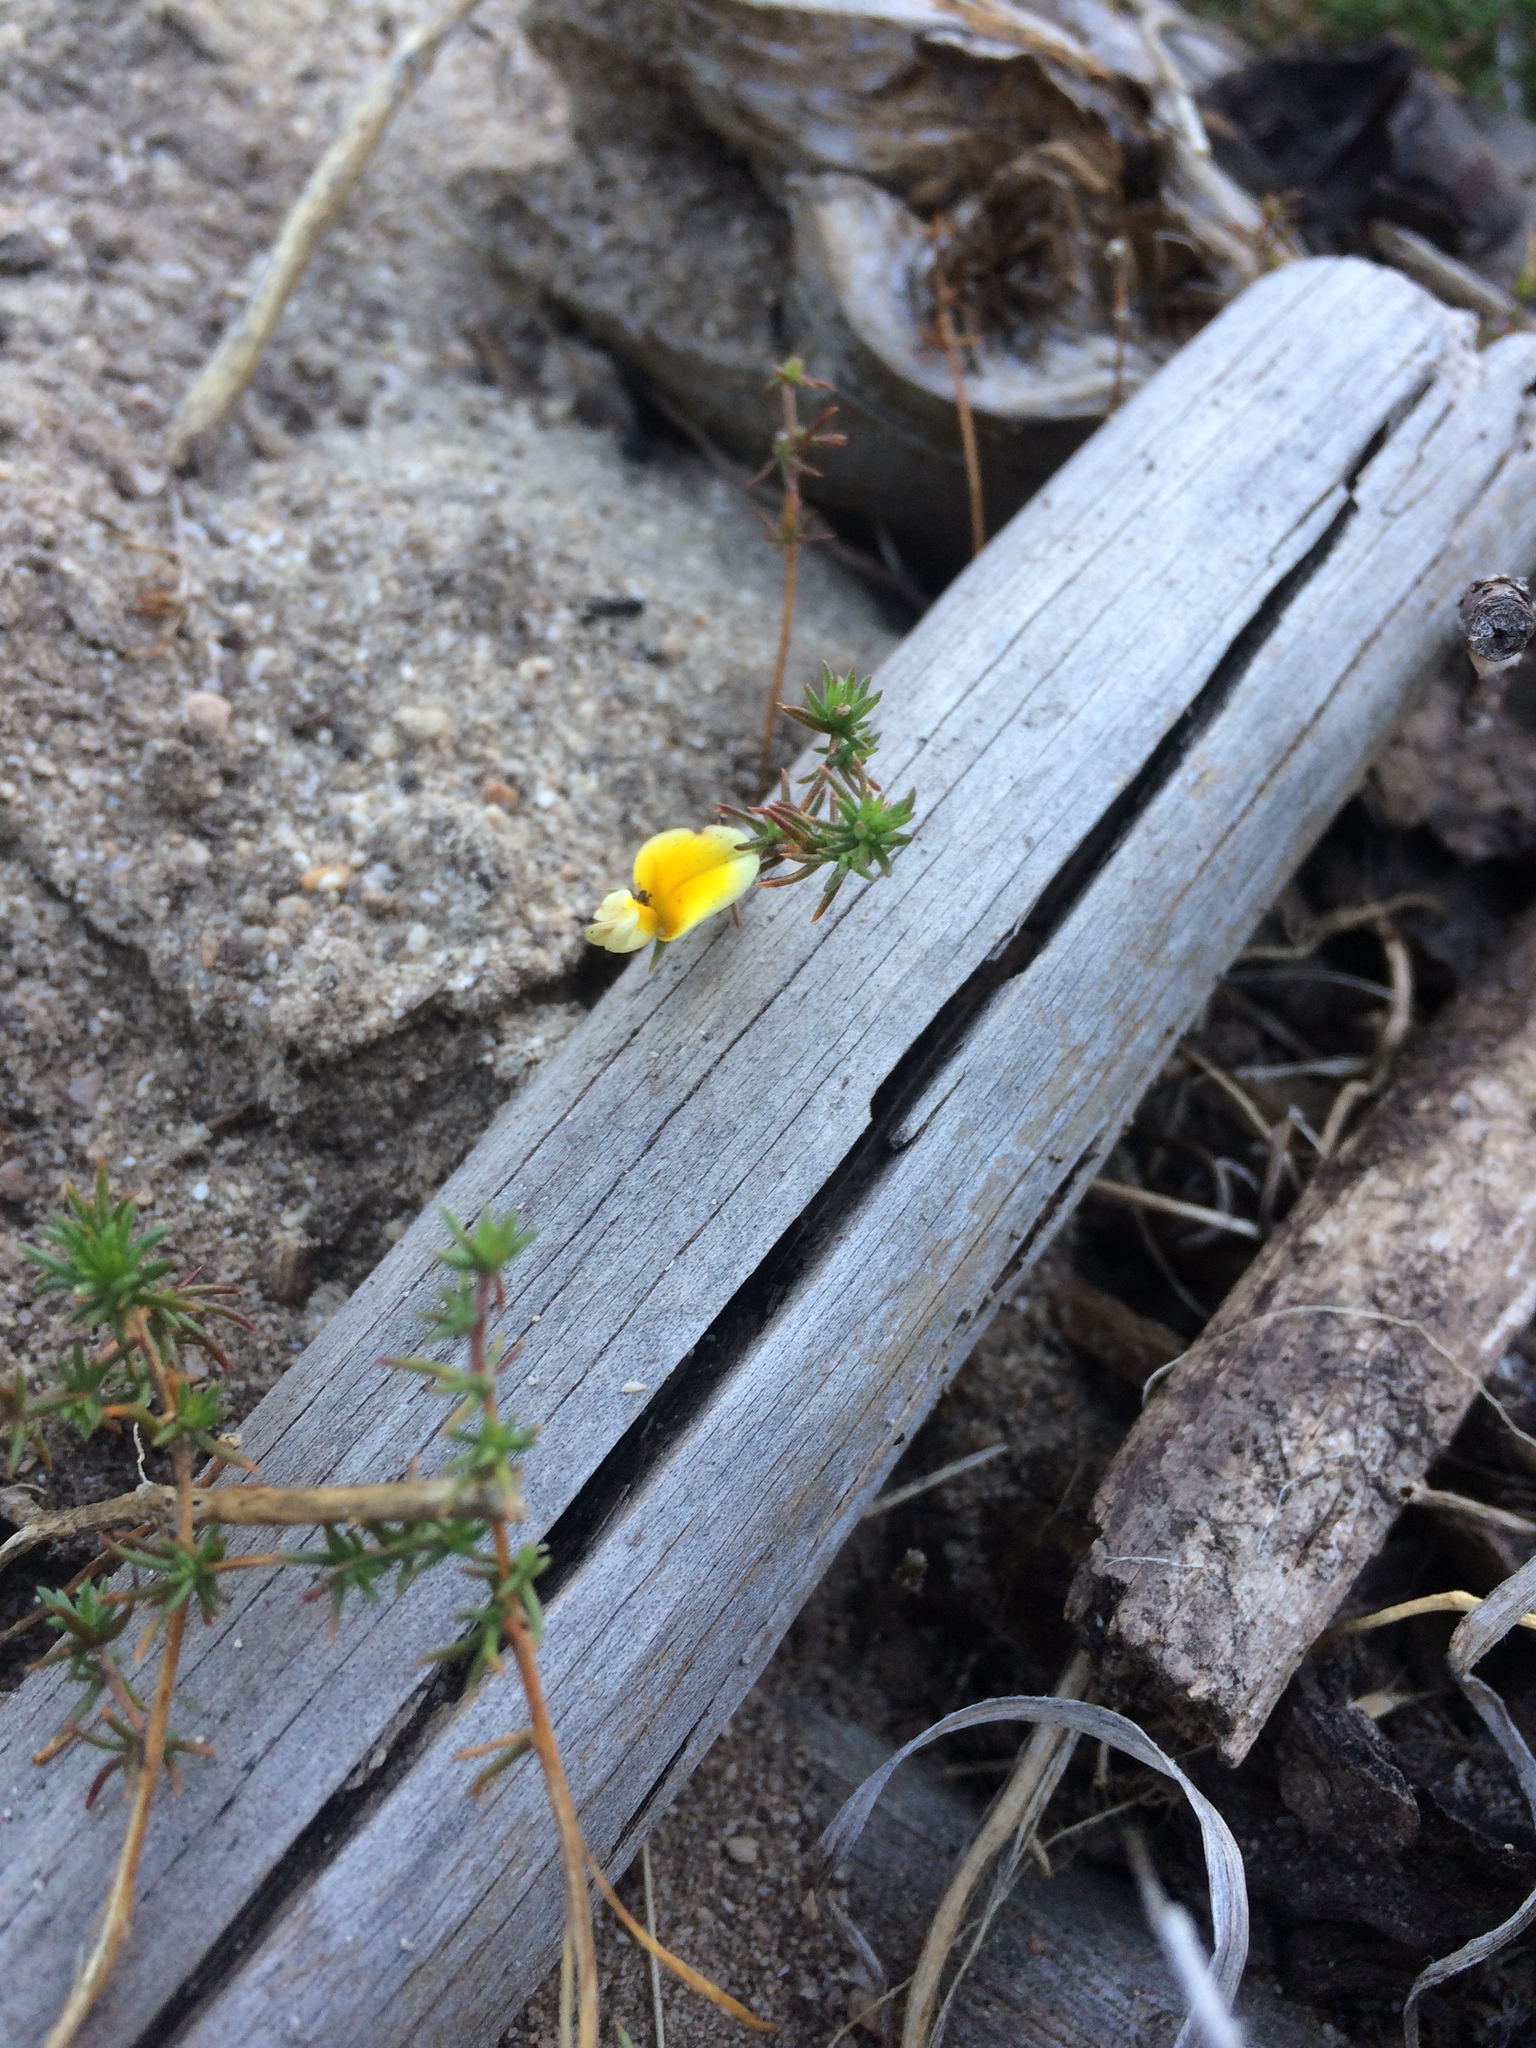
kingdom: Plantae
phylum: Tracheophyta
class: Magnoliopsida
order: Fabales
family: Fabaceae
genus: Aspalathus
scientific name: Aspalathus retroflexa
